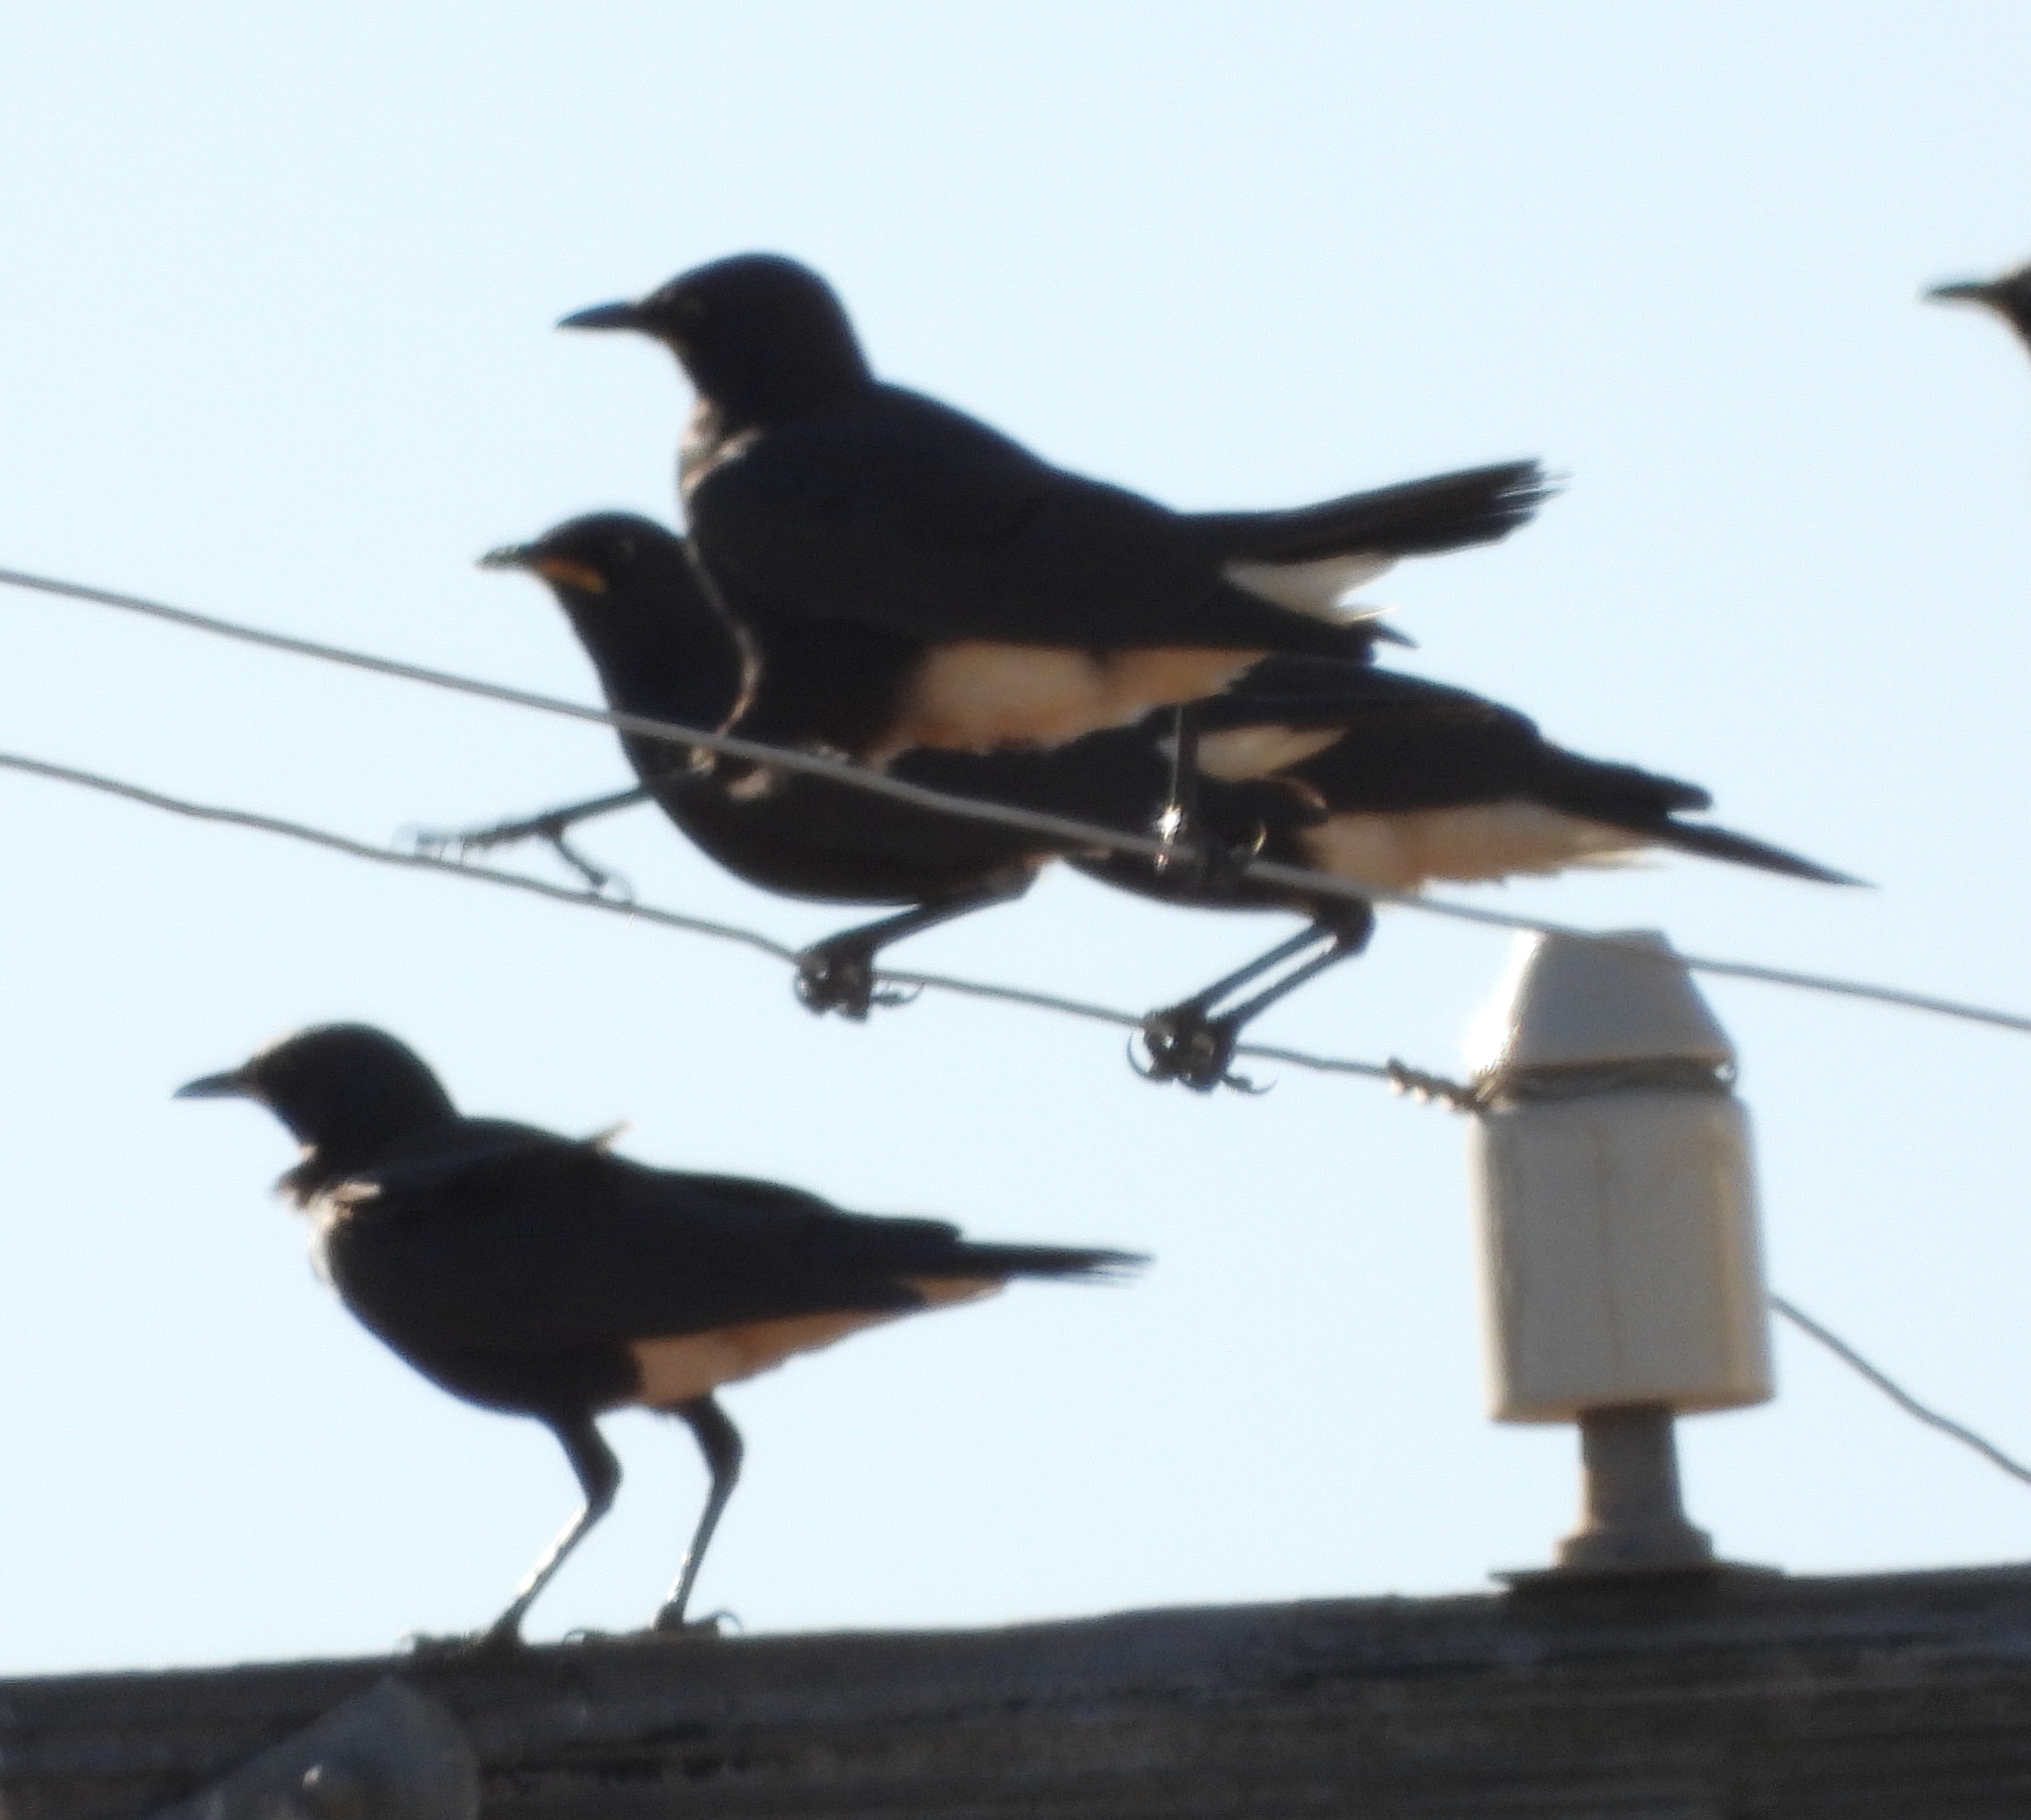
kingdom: Animalia
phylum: Chordata
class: Aves
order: Passeriformes
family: Sturnidae
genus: Lamprotornis
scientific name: Lamprotornis bicolor
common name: Pied starling
